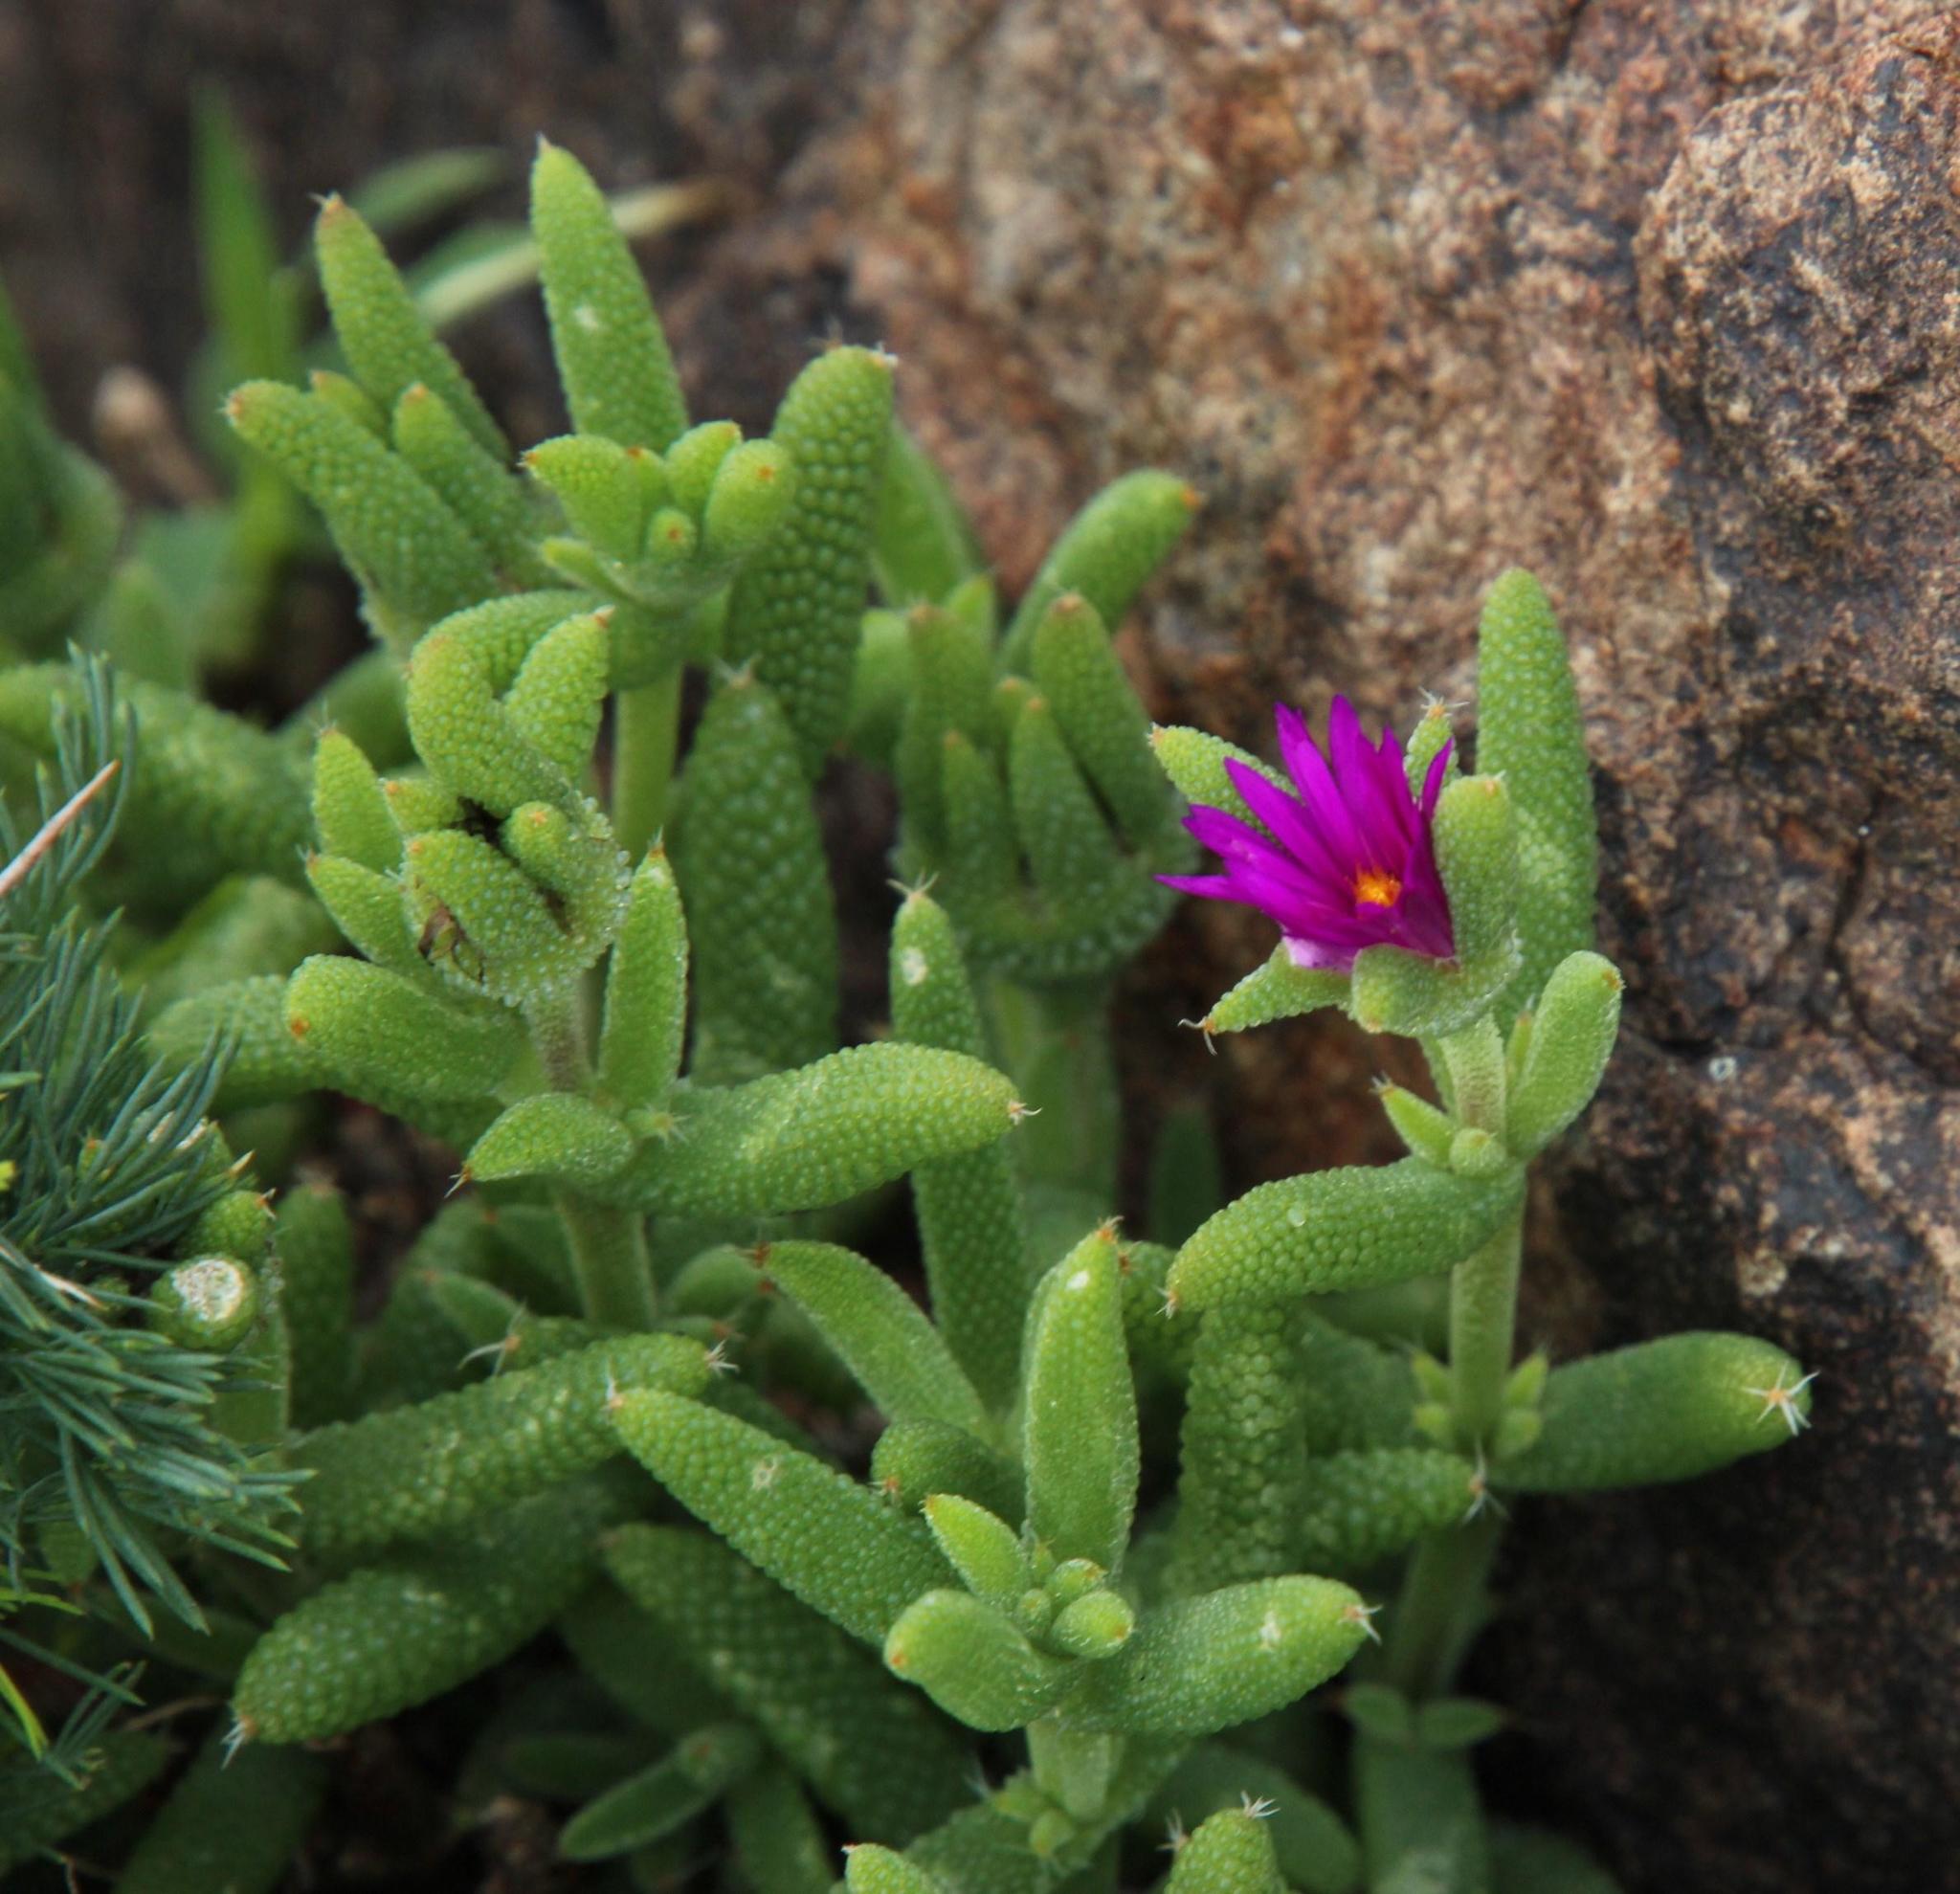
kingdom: Plantae
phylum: Tracheophyta
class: Magnoliopsida
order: Caryophyllales
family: Aizoaceae
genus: Trichodiadema
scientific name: Trichodiadema rogersiae
